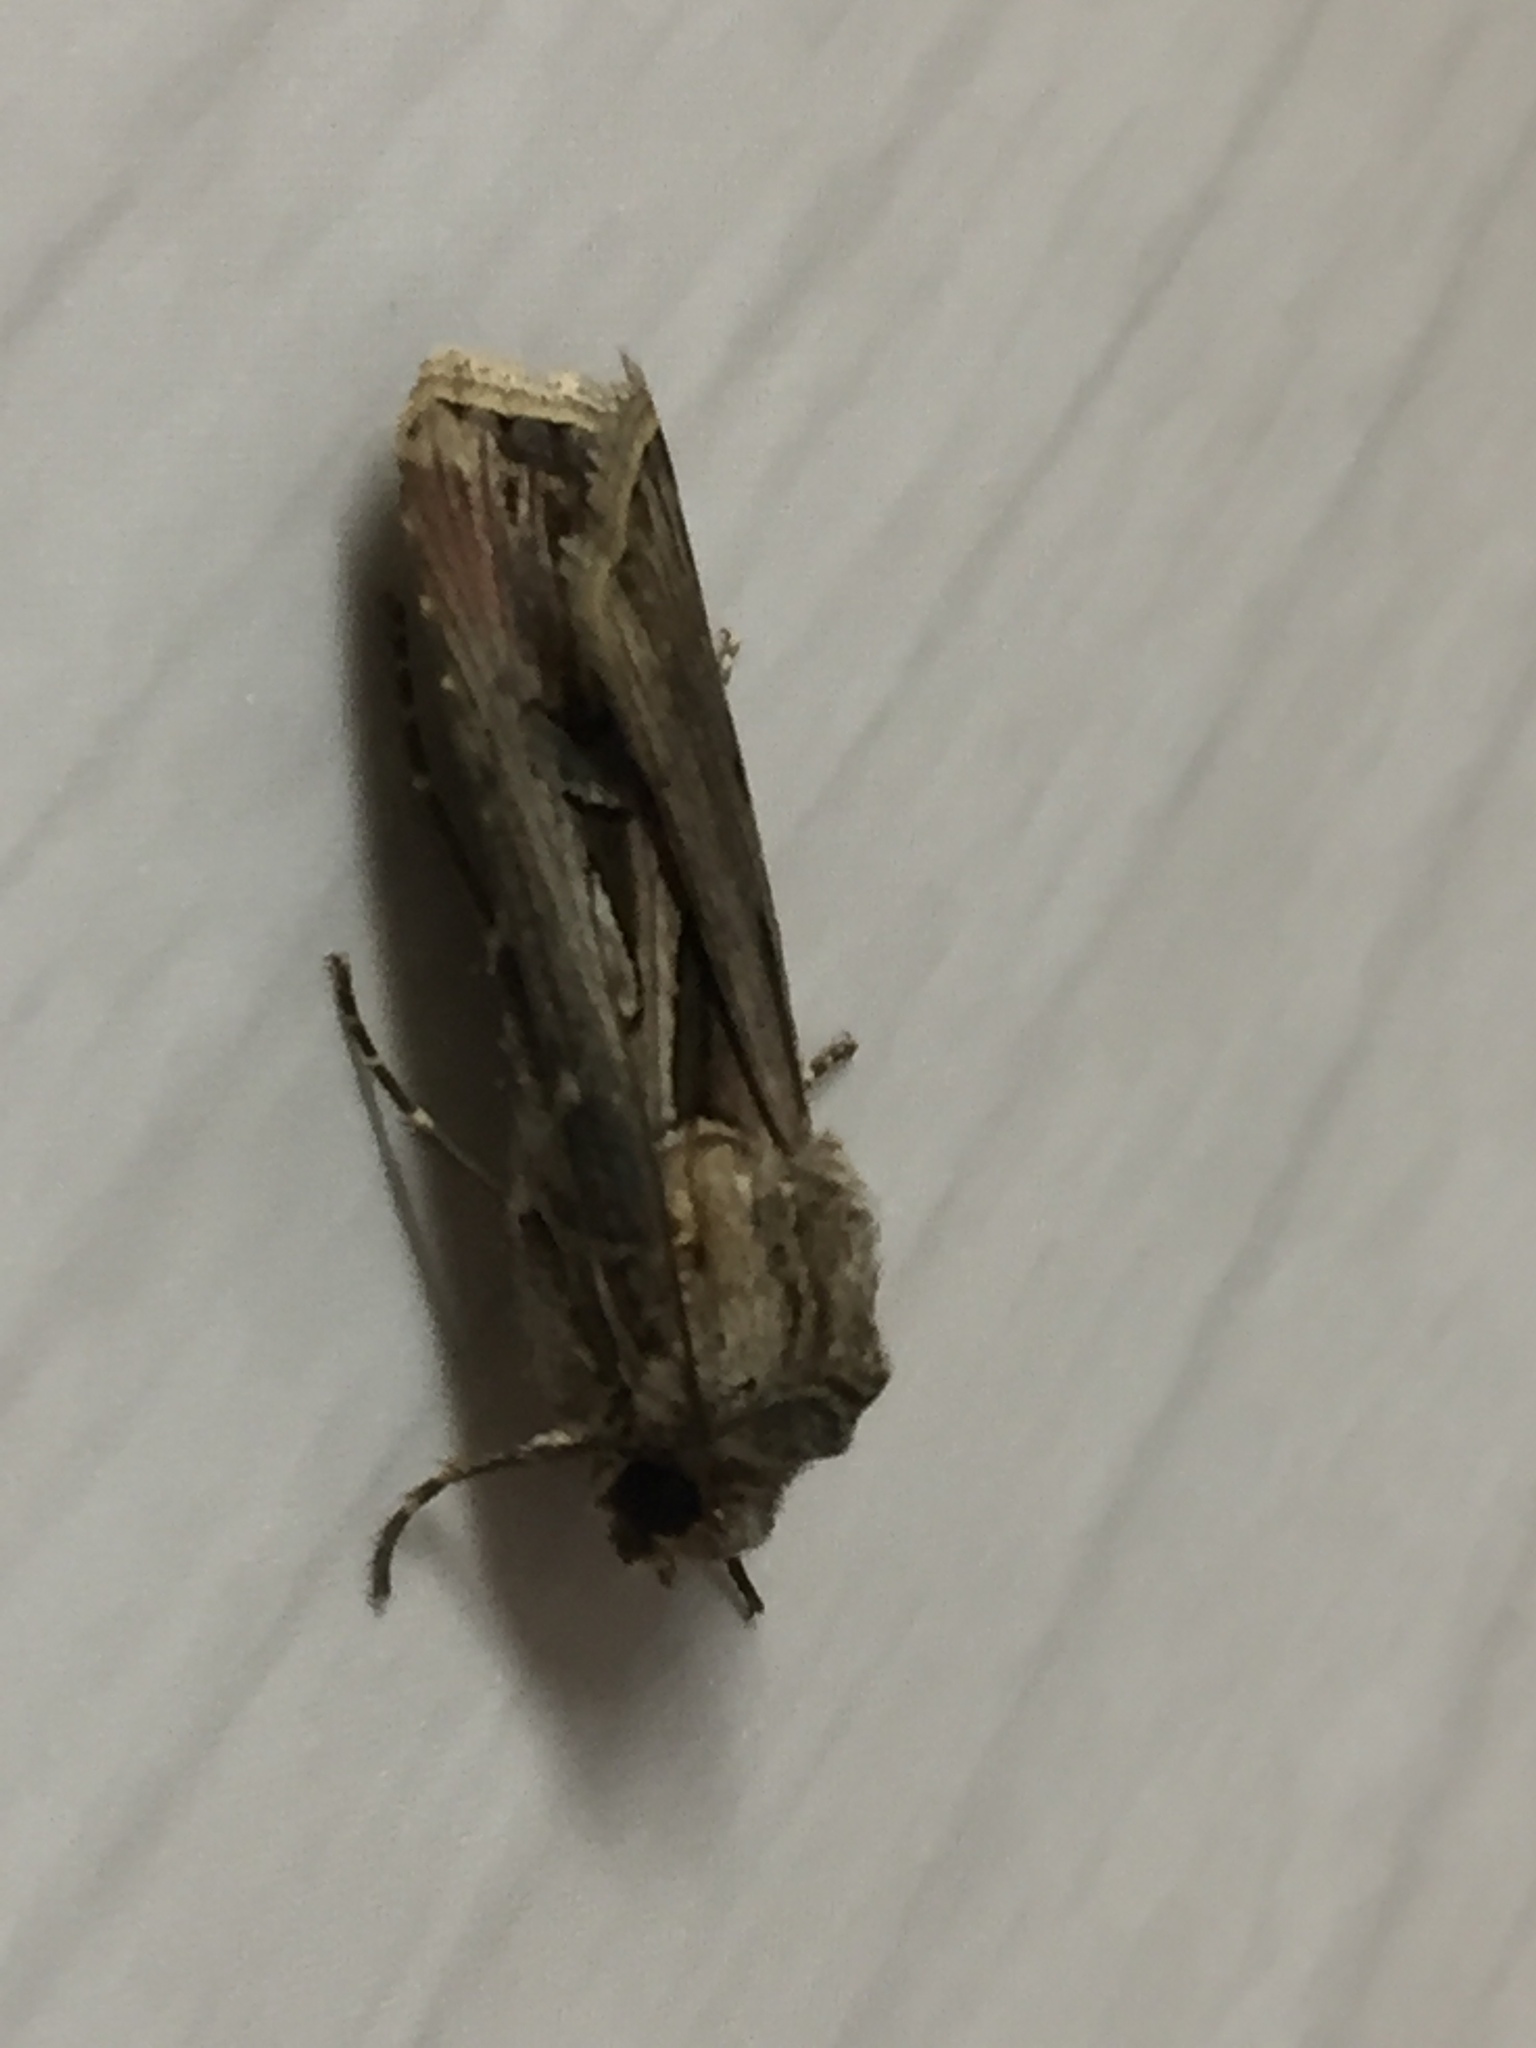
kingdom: Animalia
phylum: Arthropoda
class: Insecta
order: Lepidoptera
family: Noctuidae
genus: Agrotis
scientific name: Agrotis
